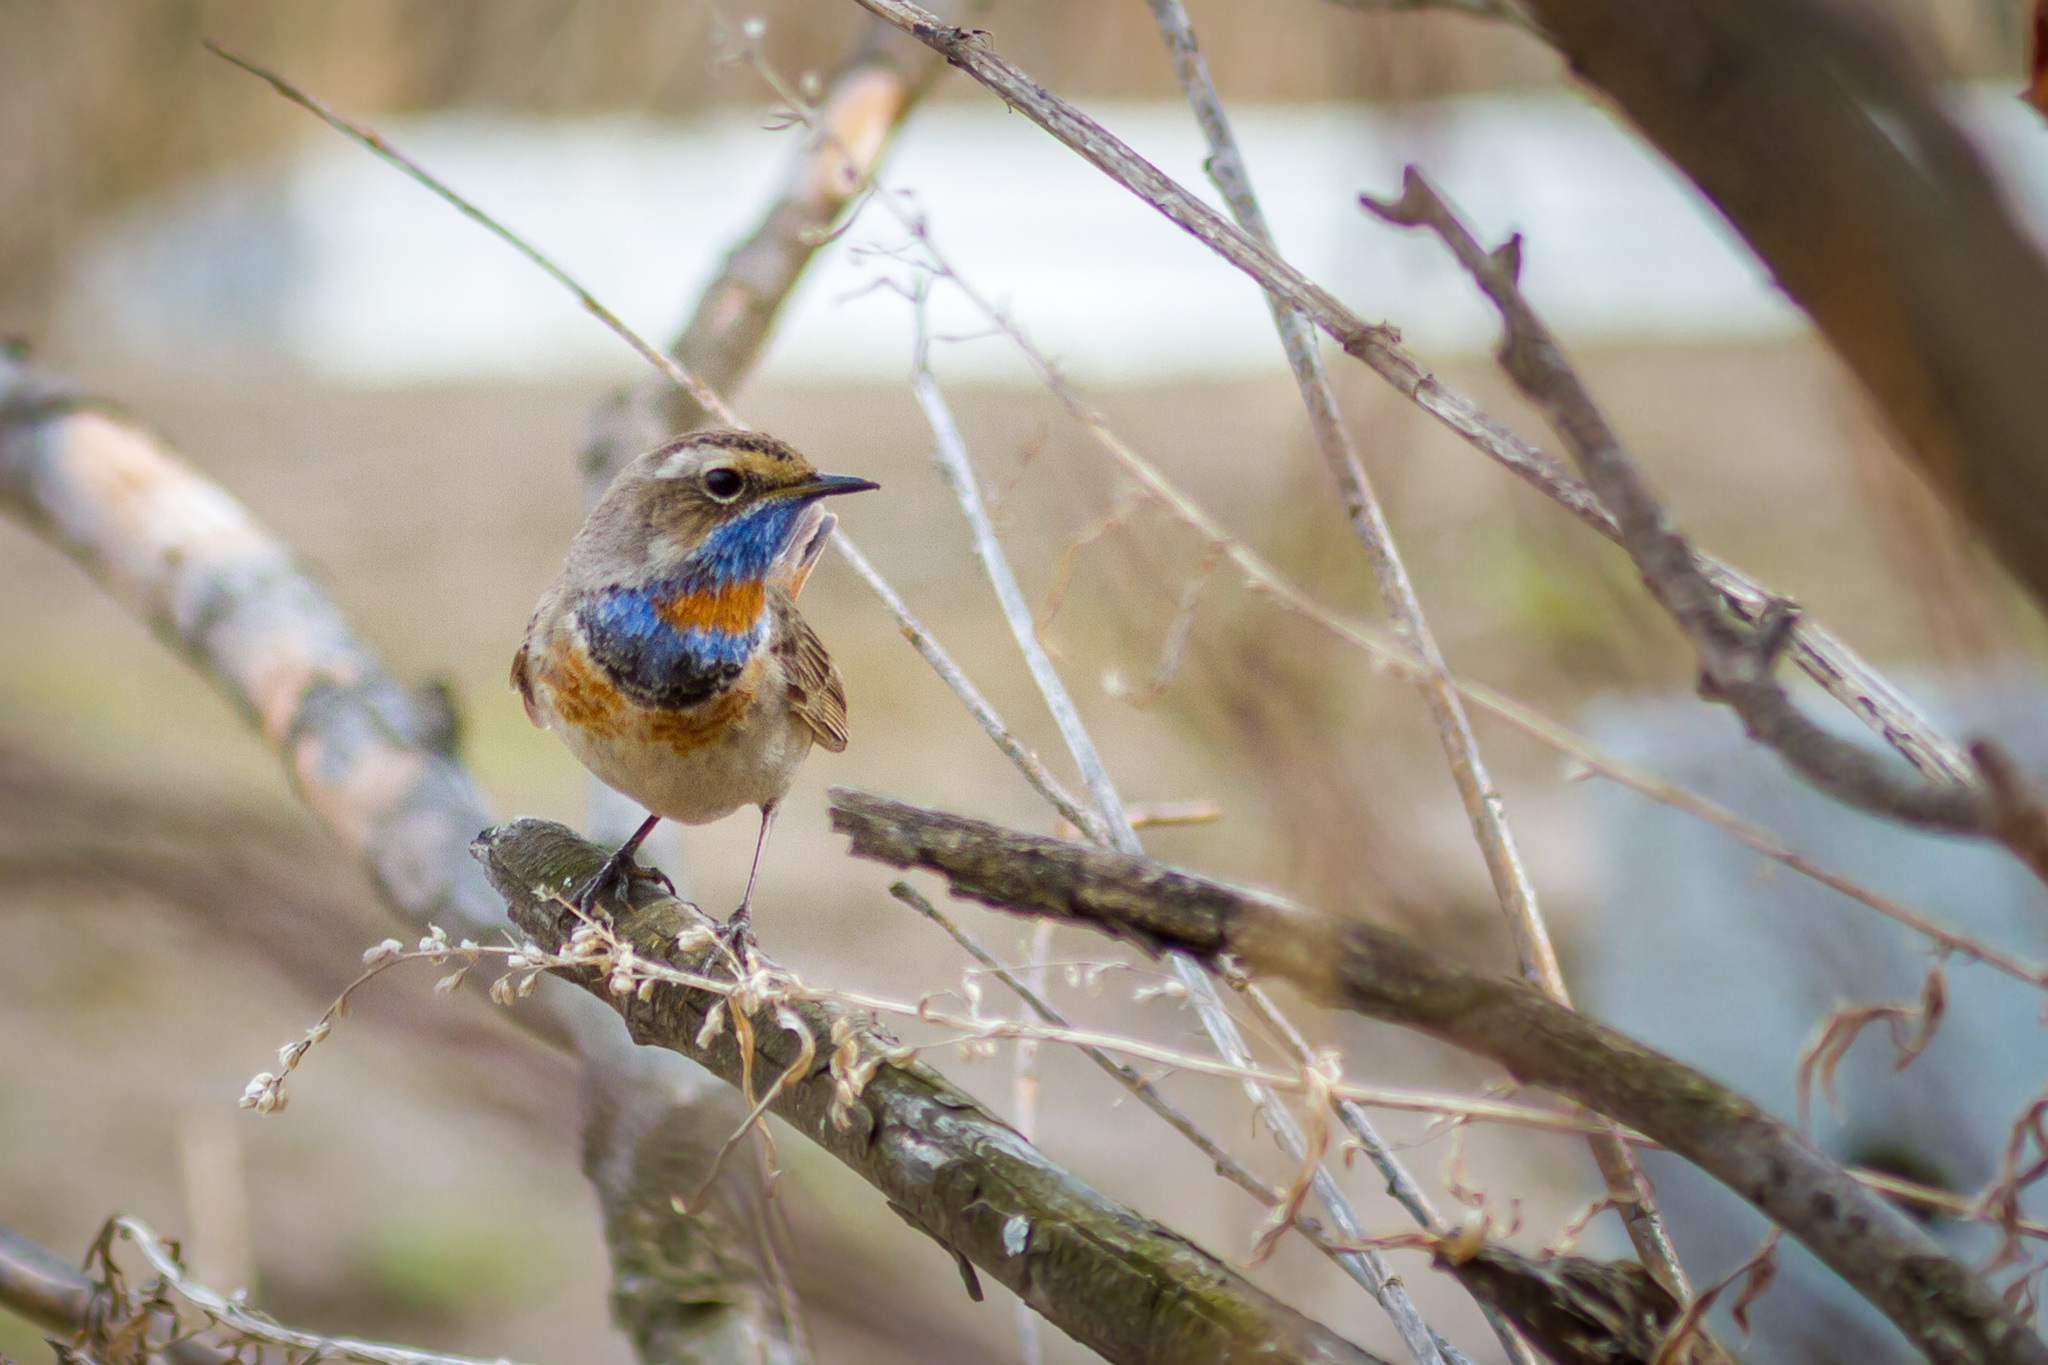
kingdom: Animalia
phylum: Chordata
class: Aves
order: Passeriformes
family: Muscicapidae
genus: Luscinia
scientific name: Luscinia svecica
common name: Bluethroat
